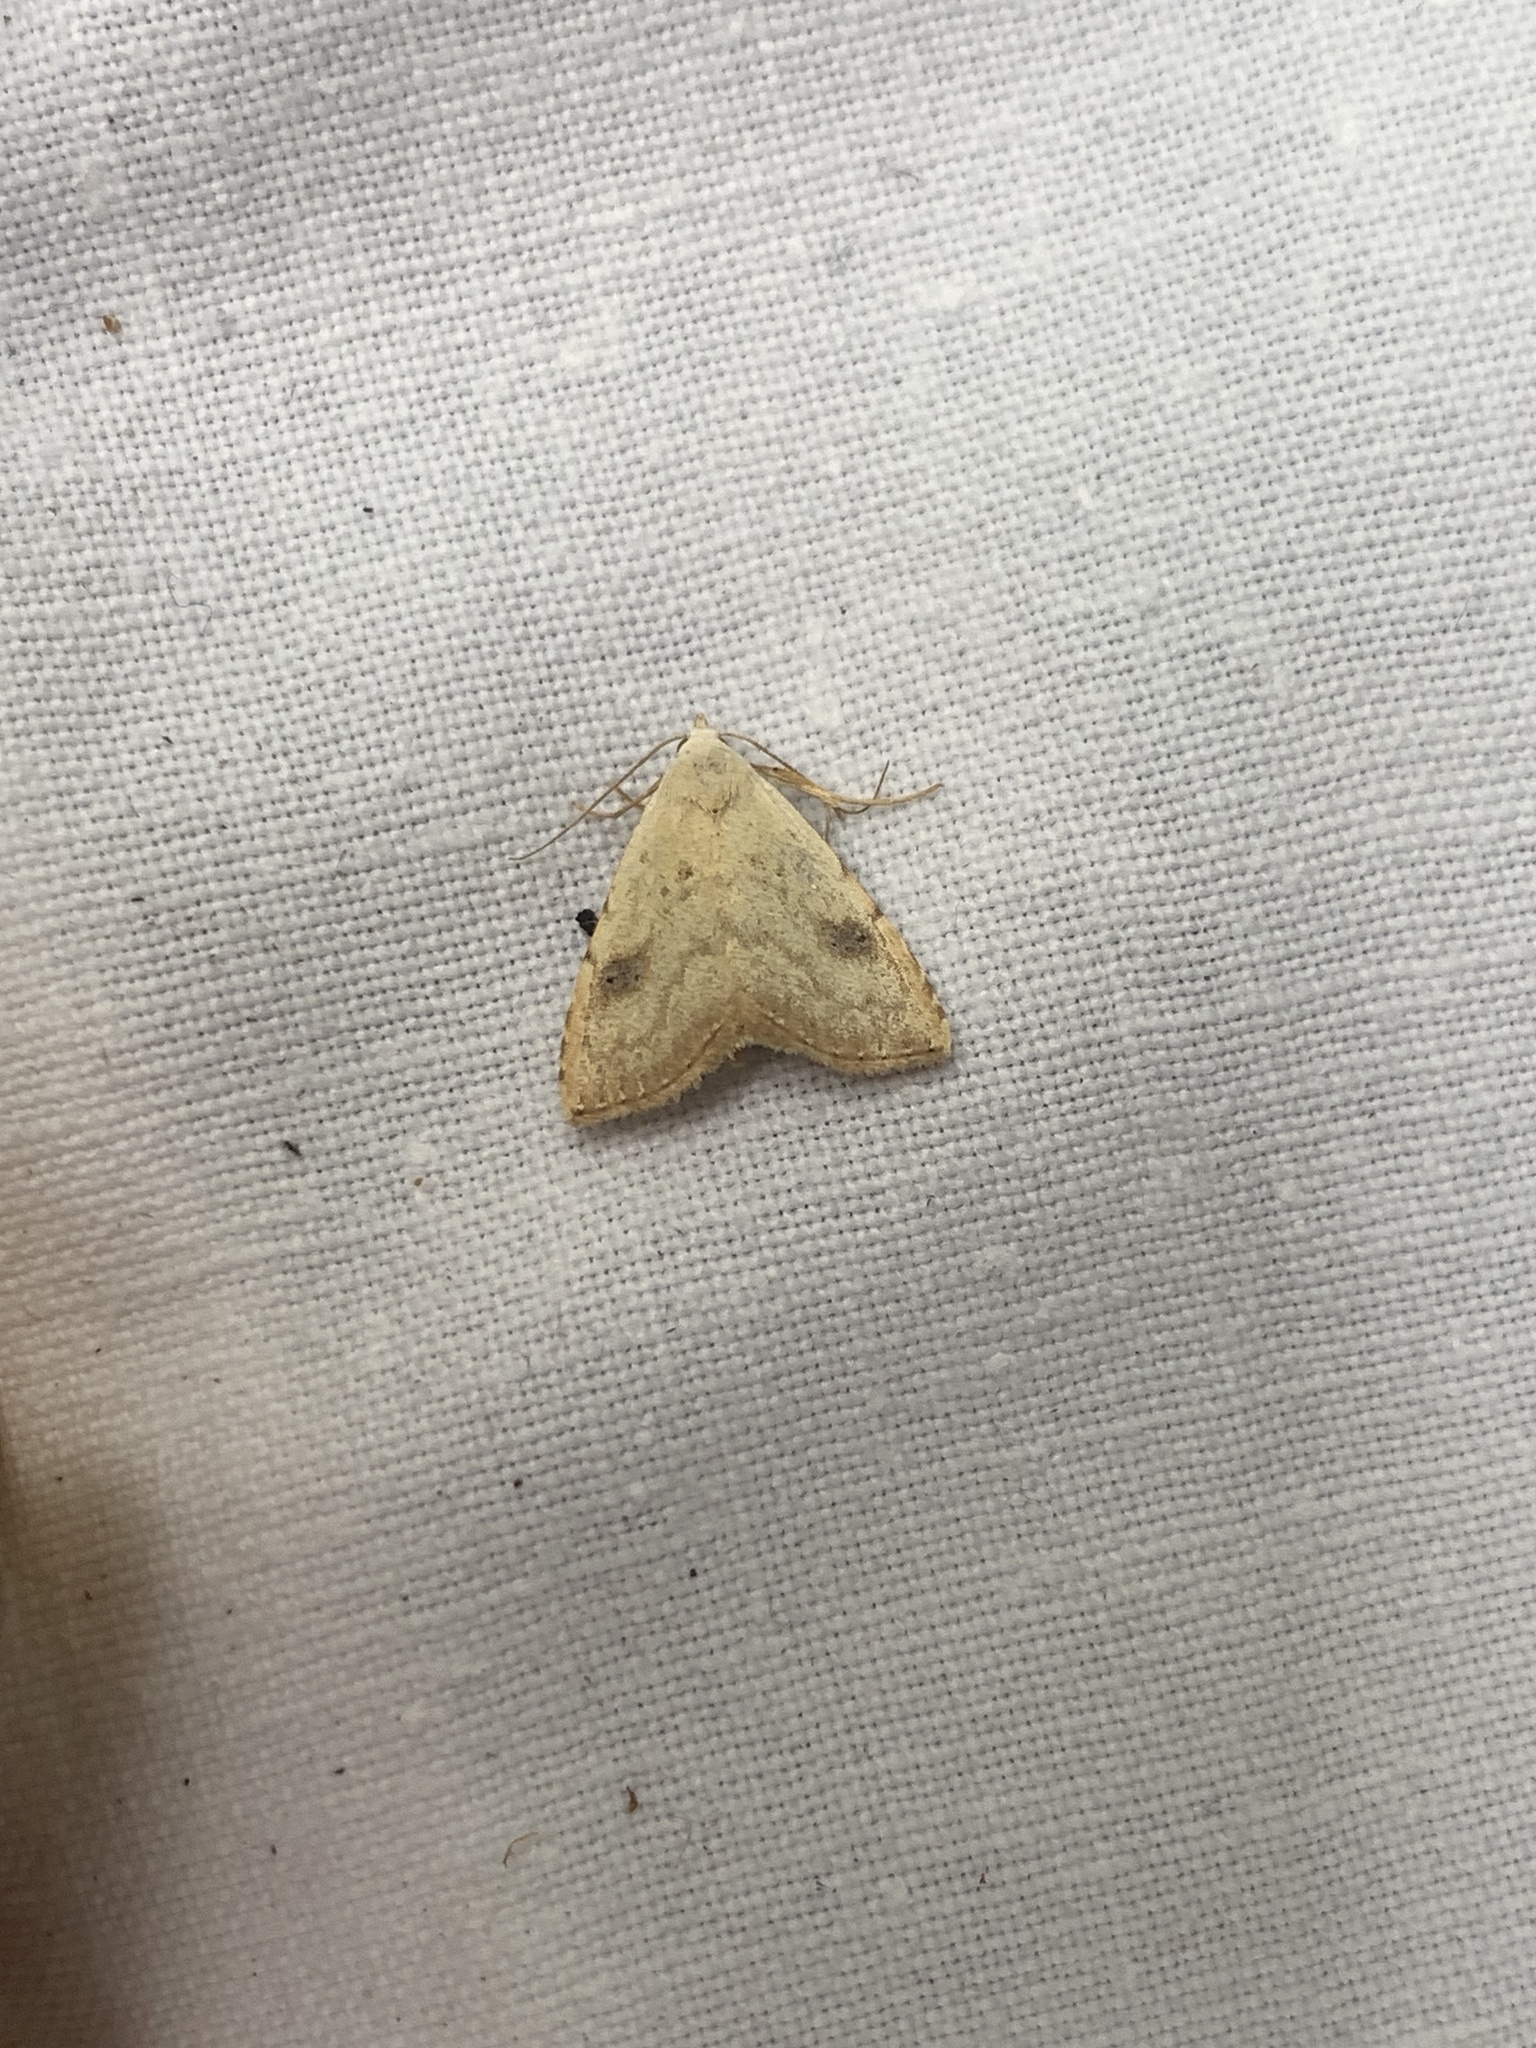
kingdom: Animalia
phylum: Arthropoda
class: Insecta
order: Lepidoptera
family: Erebidae
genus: Rivula
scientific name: Rivula sericealis
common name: Straw dot
